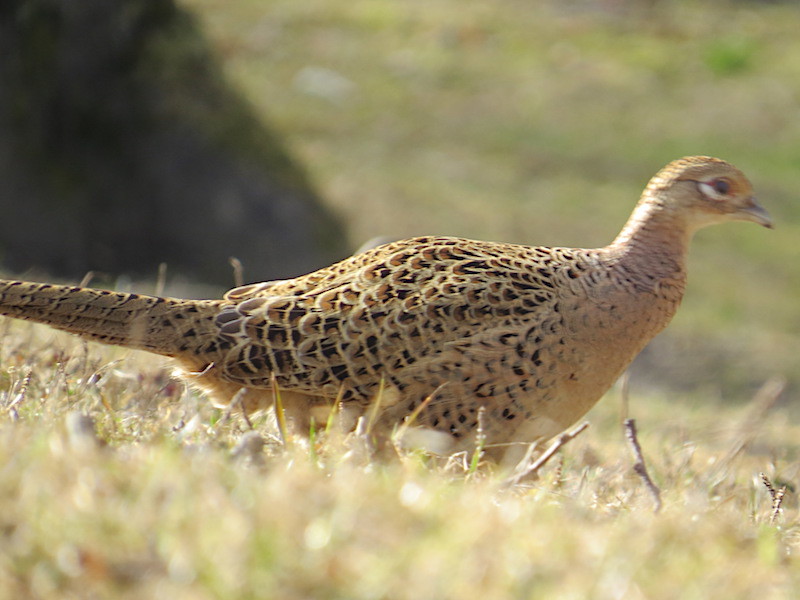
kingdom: Animalia
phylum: Chordata
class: Aves
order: Galliformes
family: Phasianidae
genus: Phasianus
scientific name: Phasianus colchicus
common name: Common pheasant
